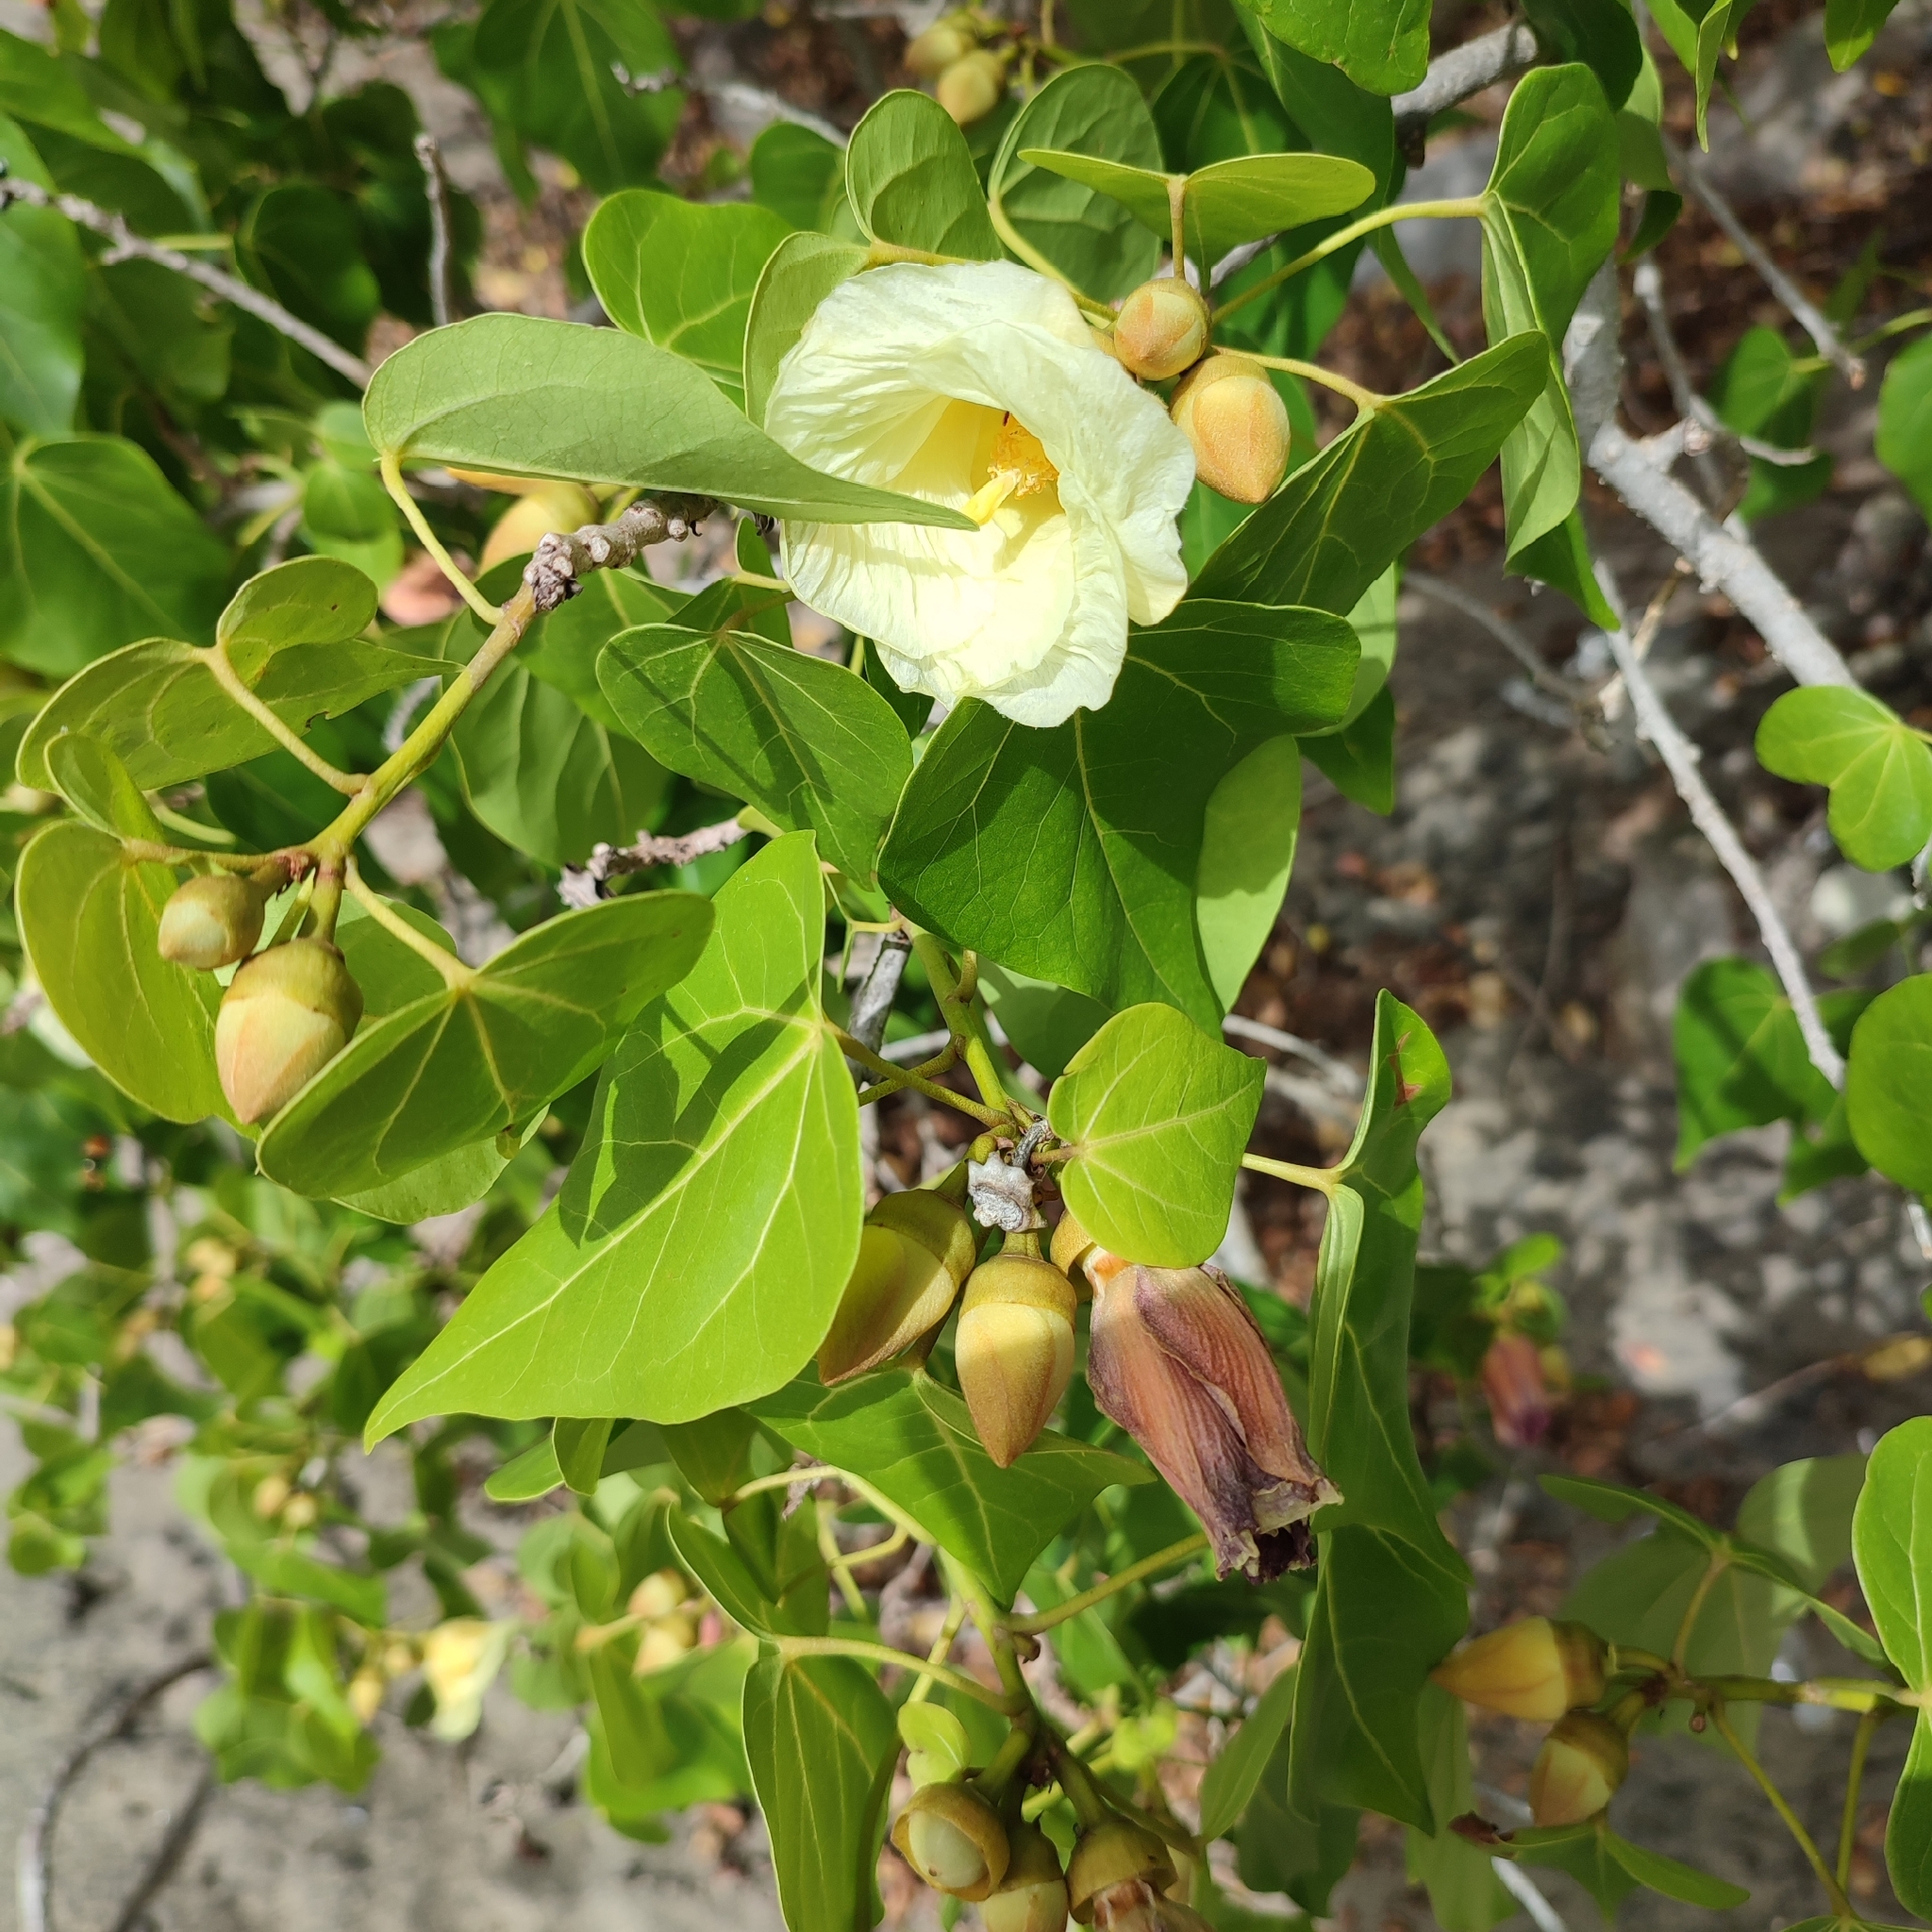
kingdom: Plantae
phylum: Tracheophyta
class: Magnoliopsida
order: Malvales
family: Malvaceae
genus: Thespesia
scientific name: Thespesia populnea
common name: Seaside mahoe
